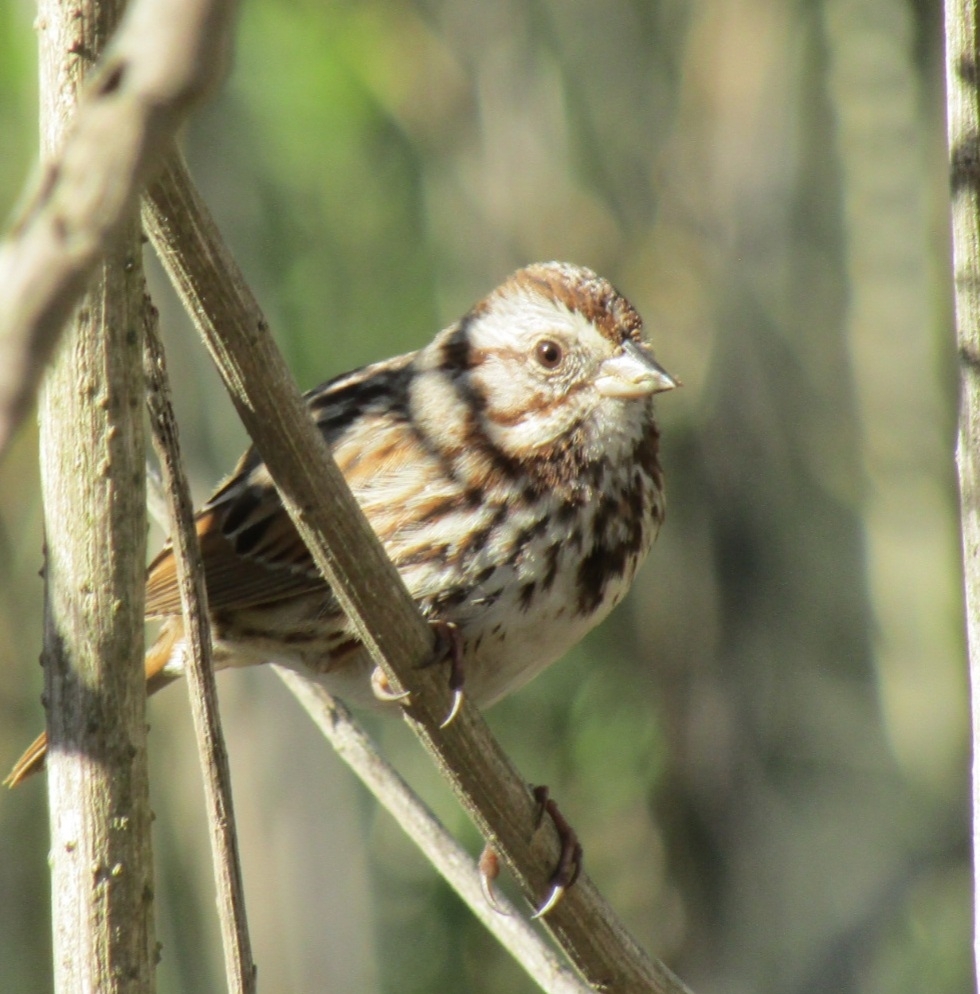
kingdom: Animalia
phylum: Chordata
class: Aves
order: Passeriformes
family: Passerellidae
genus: Melospiza
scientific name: Melospiza melodia
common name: Song sparrow
